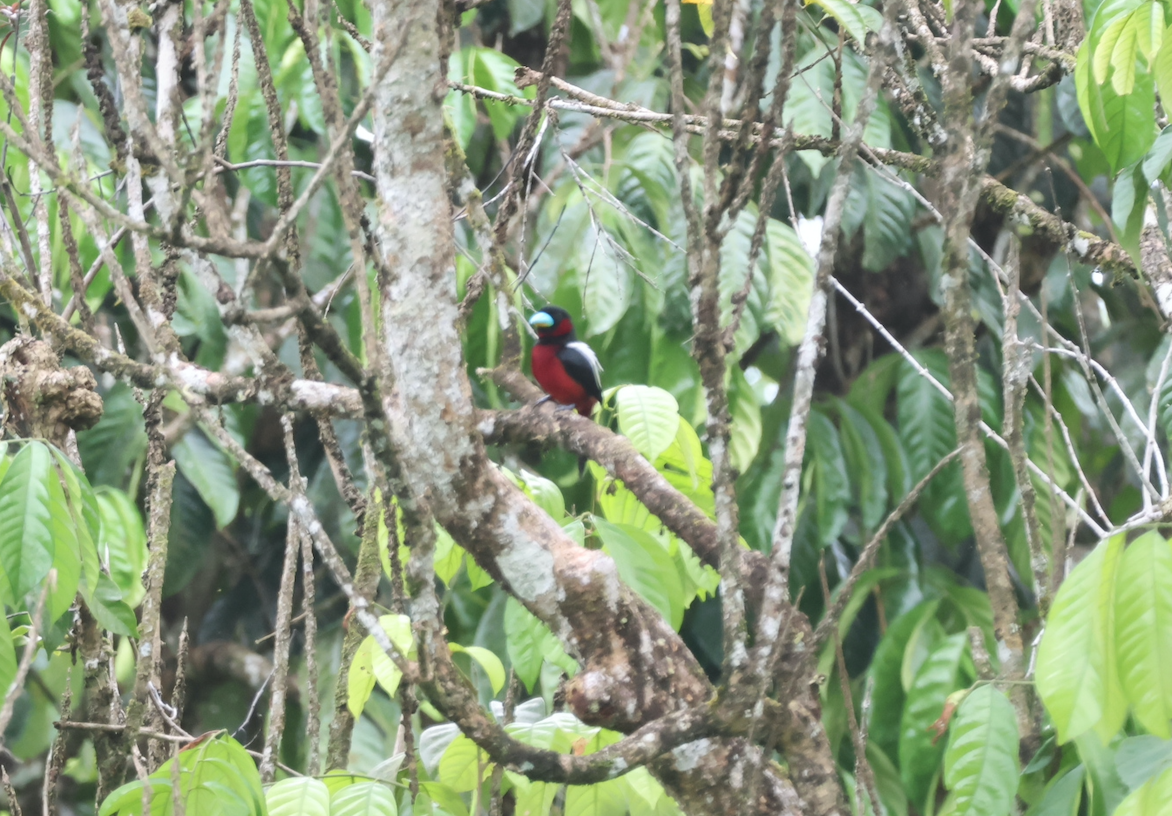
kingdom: Animalia
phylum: Chordata
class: Aves
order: Passeriformes
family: Eurylaimidae
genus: Cymbirhynchus
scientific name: Cymbirhynchus macrorhynchos
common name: Black-and-red broadbill
